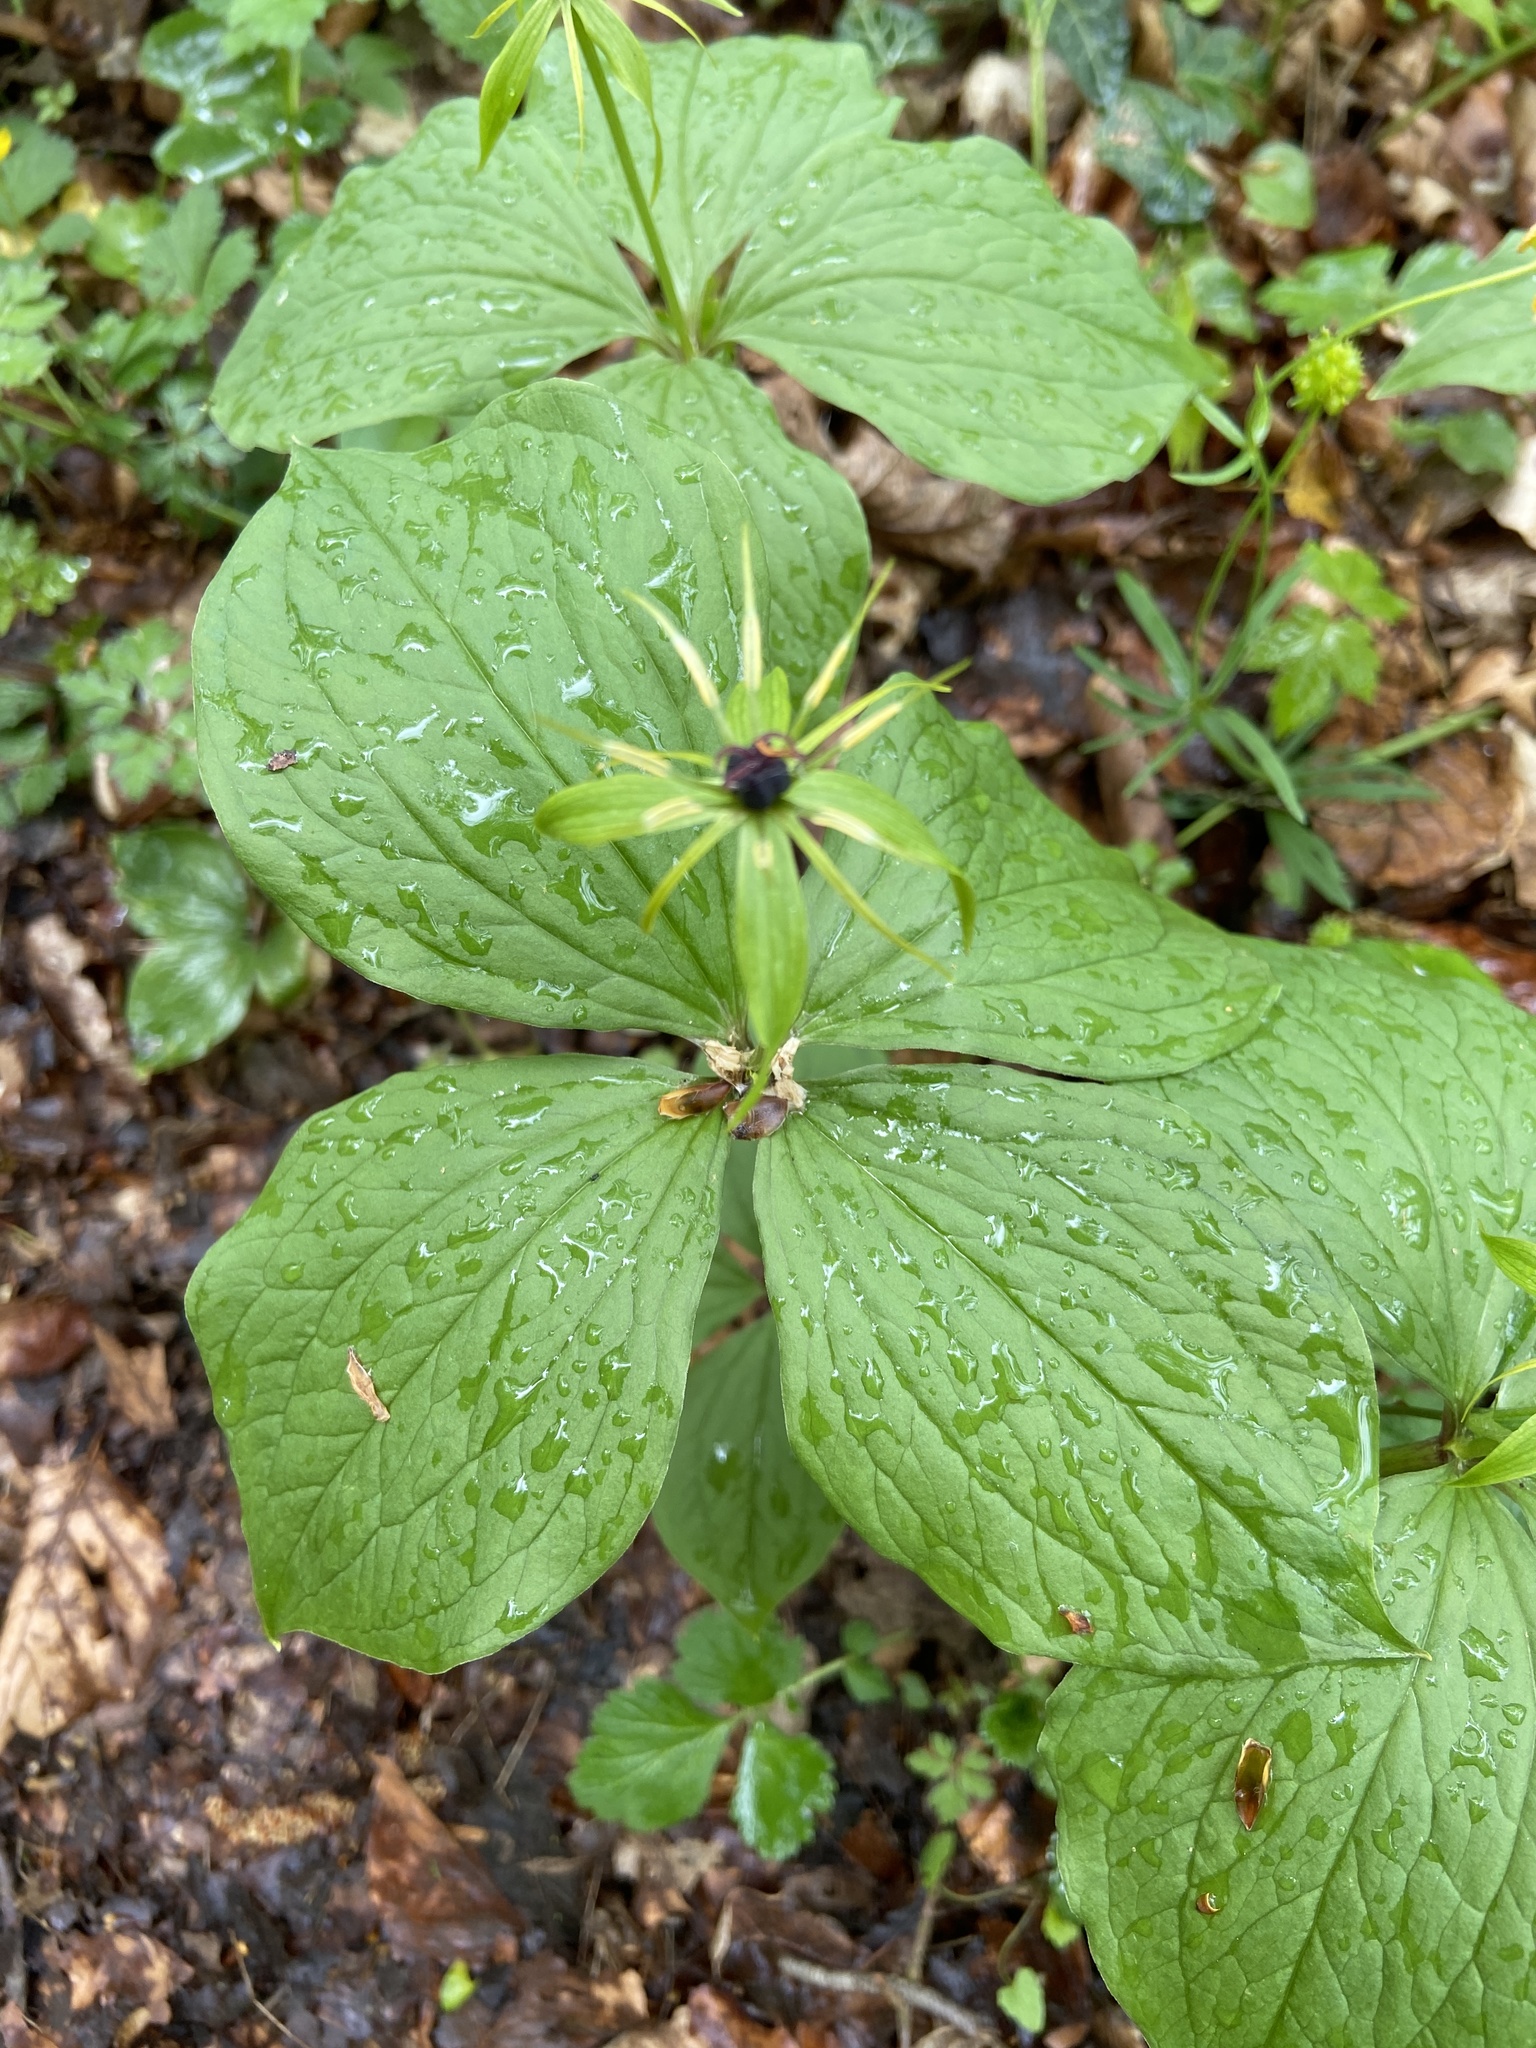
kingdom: Plantae
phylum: Tracheophyta
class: Liliopsida
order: Liliales
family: Melanthiaceae
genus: Paris
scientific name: Paris quadrifolia
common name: Herb-paris
